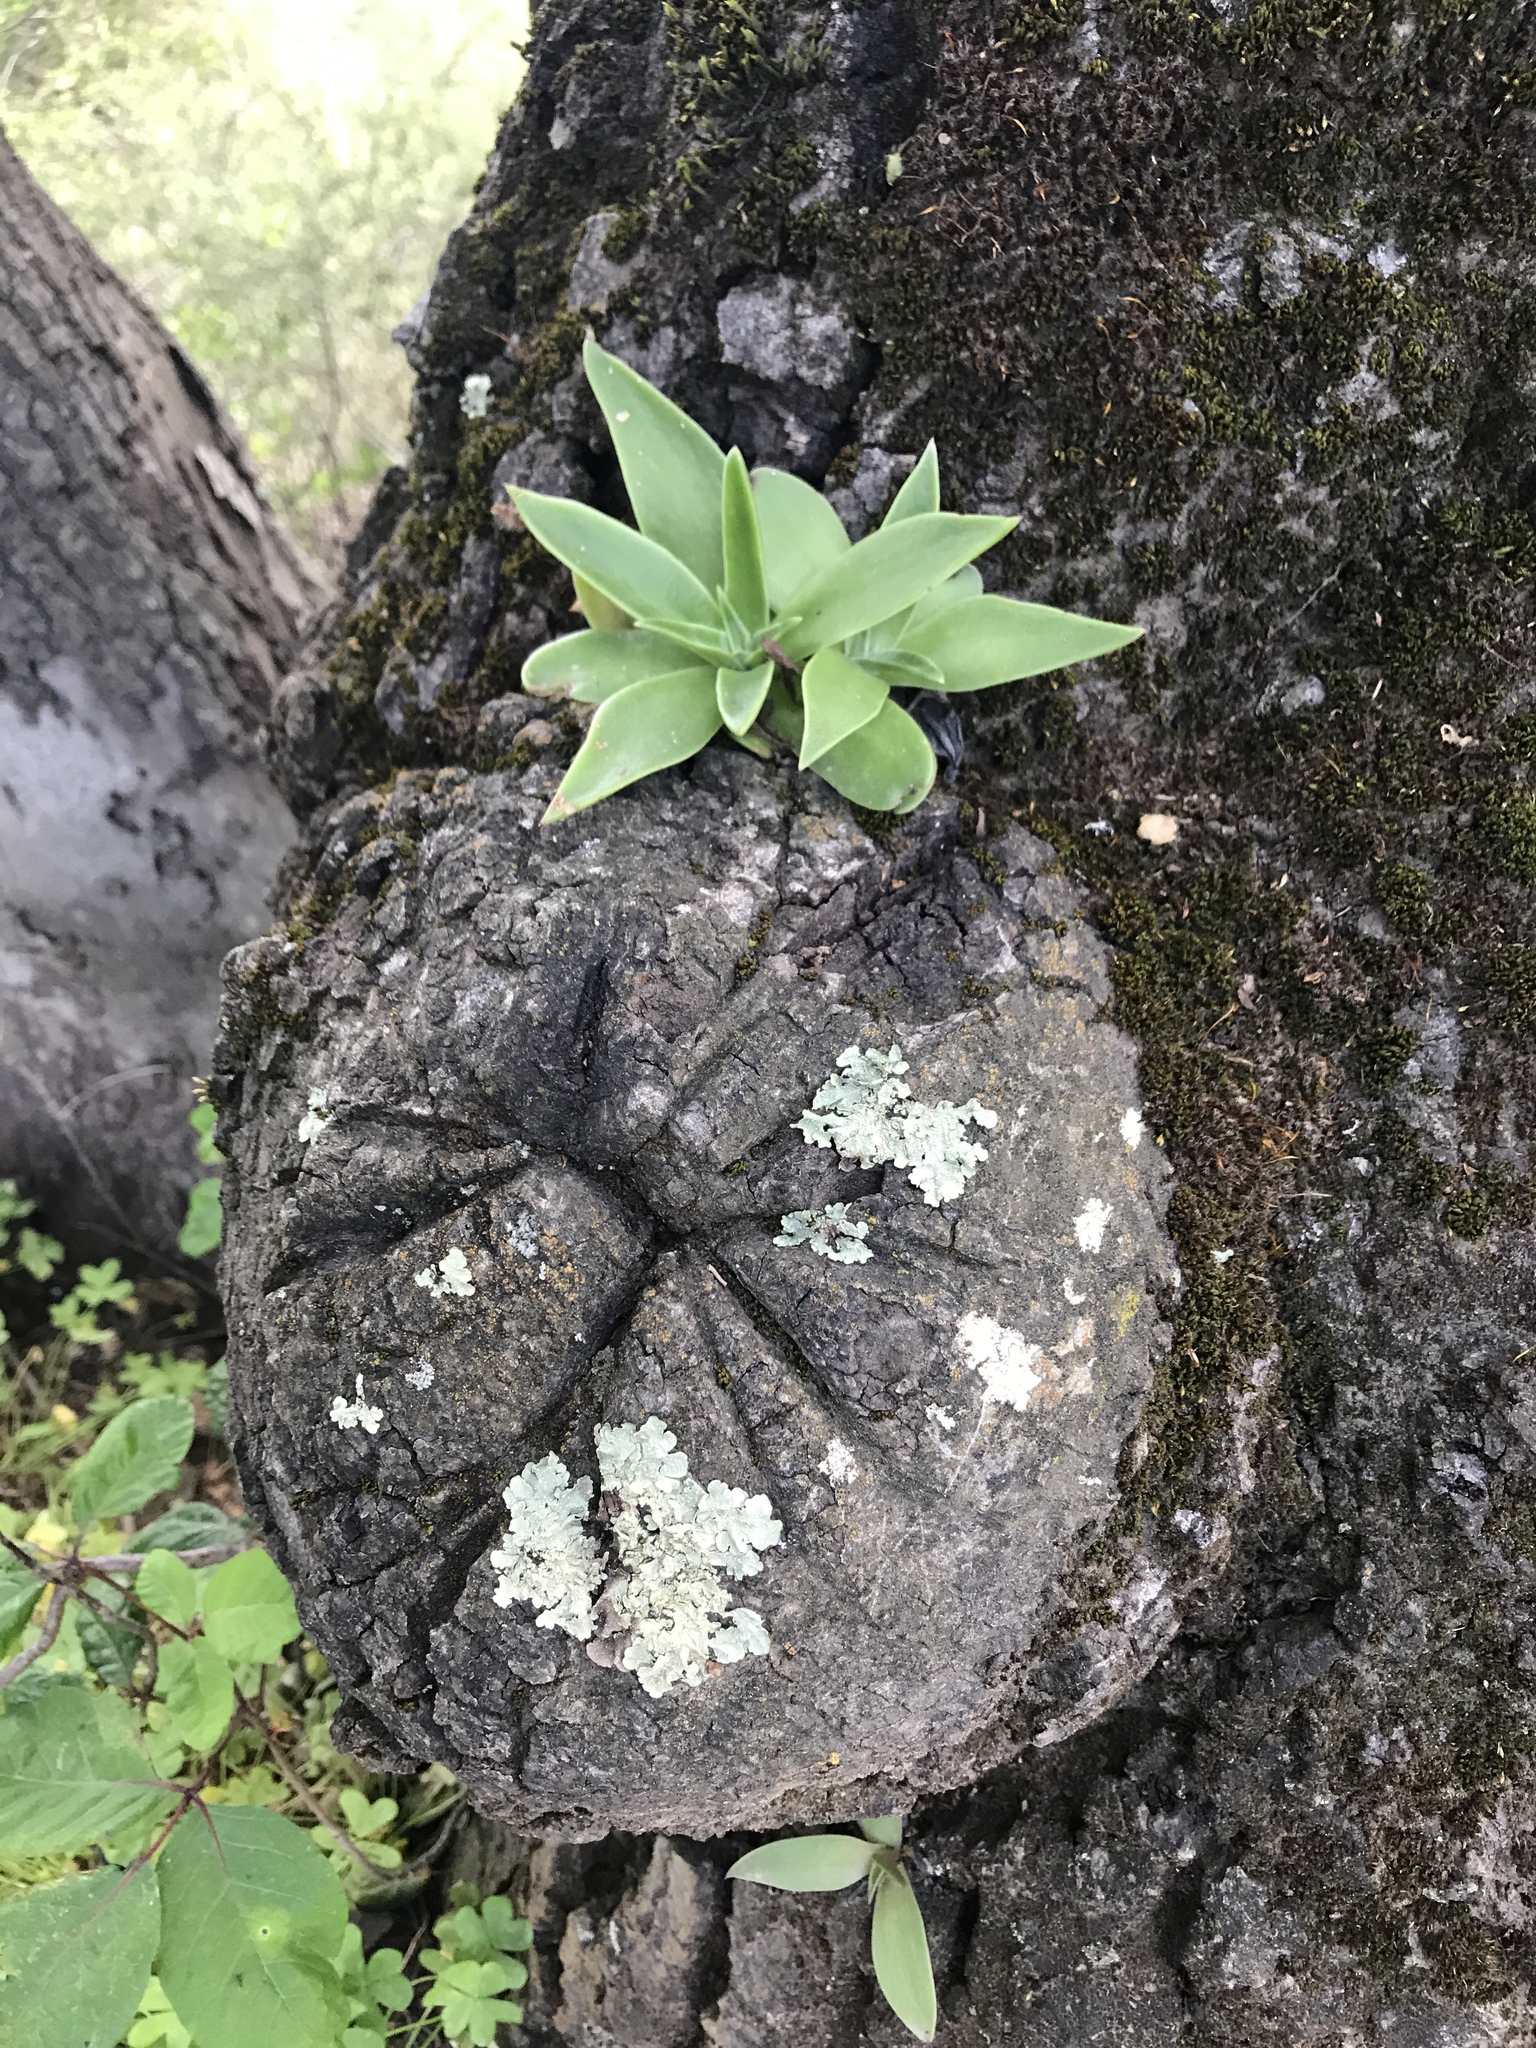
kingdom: Plantae
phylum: Tracheophyta
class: Magnoliopsida
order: Saxifragales
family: Crassulaceae
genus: Dudleya
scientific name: Dudleya lanceolata
